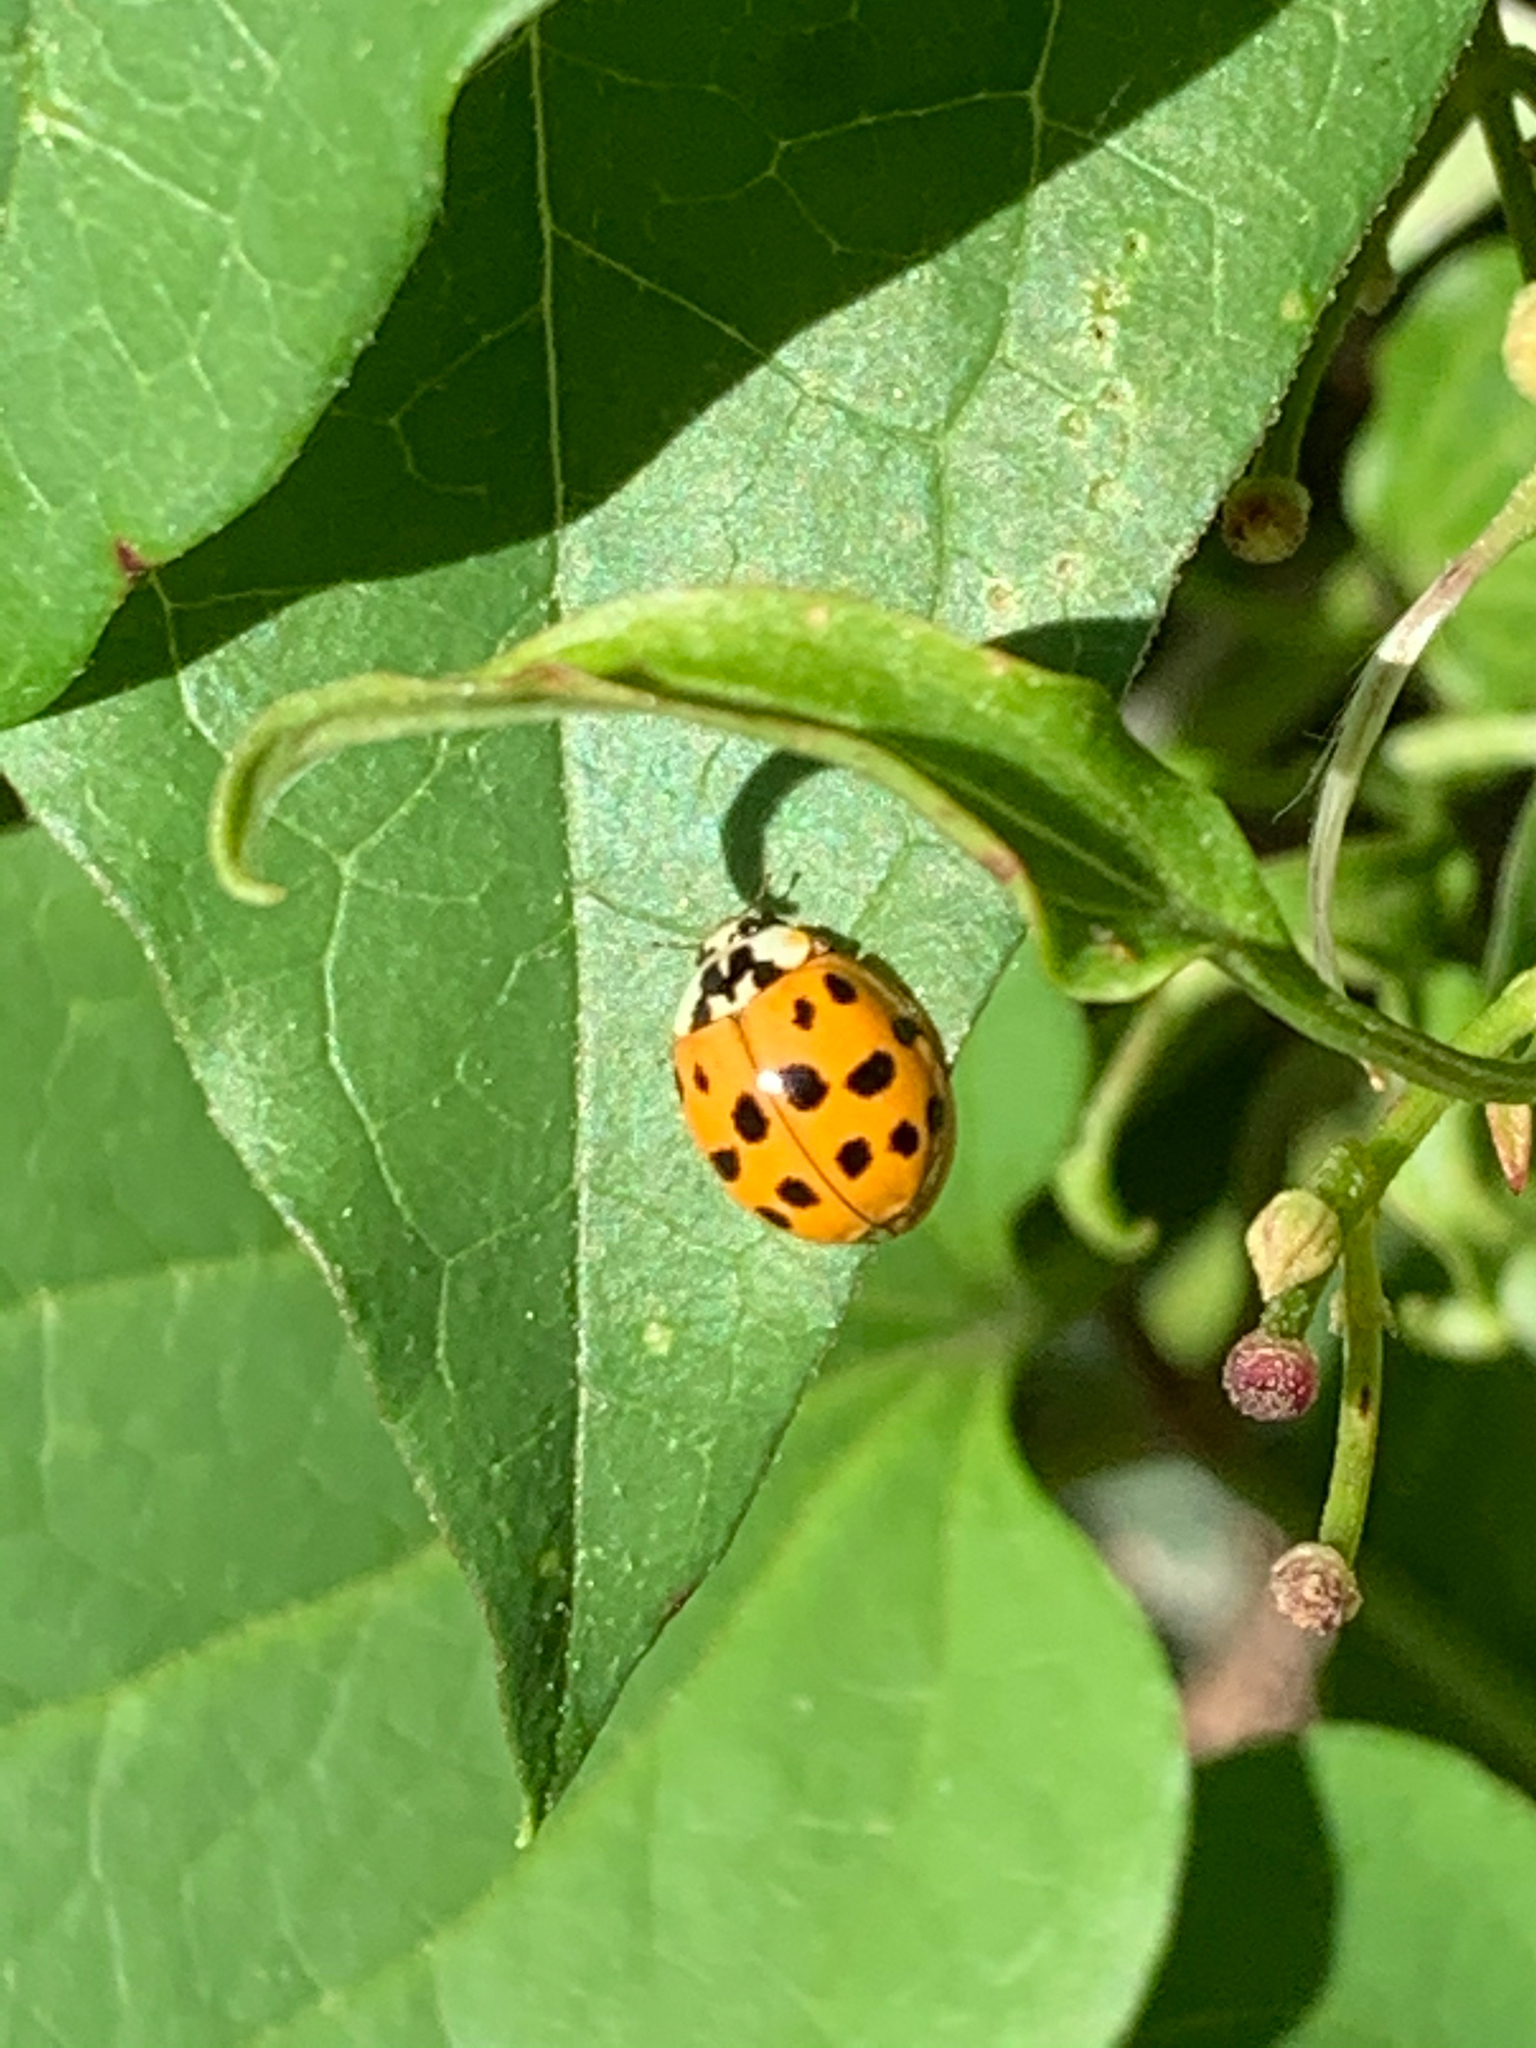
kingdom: Animalia
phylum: Arthropoda
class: Insecta
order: Coleoptera
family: Coccinellidae
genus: Harmonia
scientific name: Harmonia axyridis
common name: Harlequin ladybird
